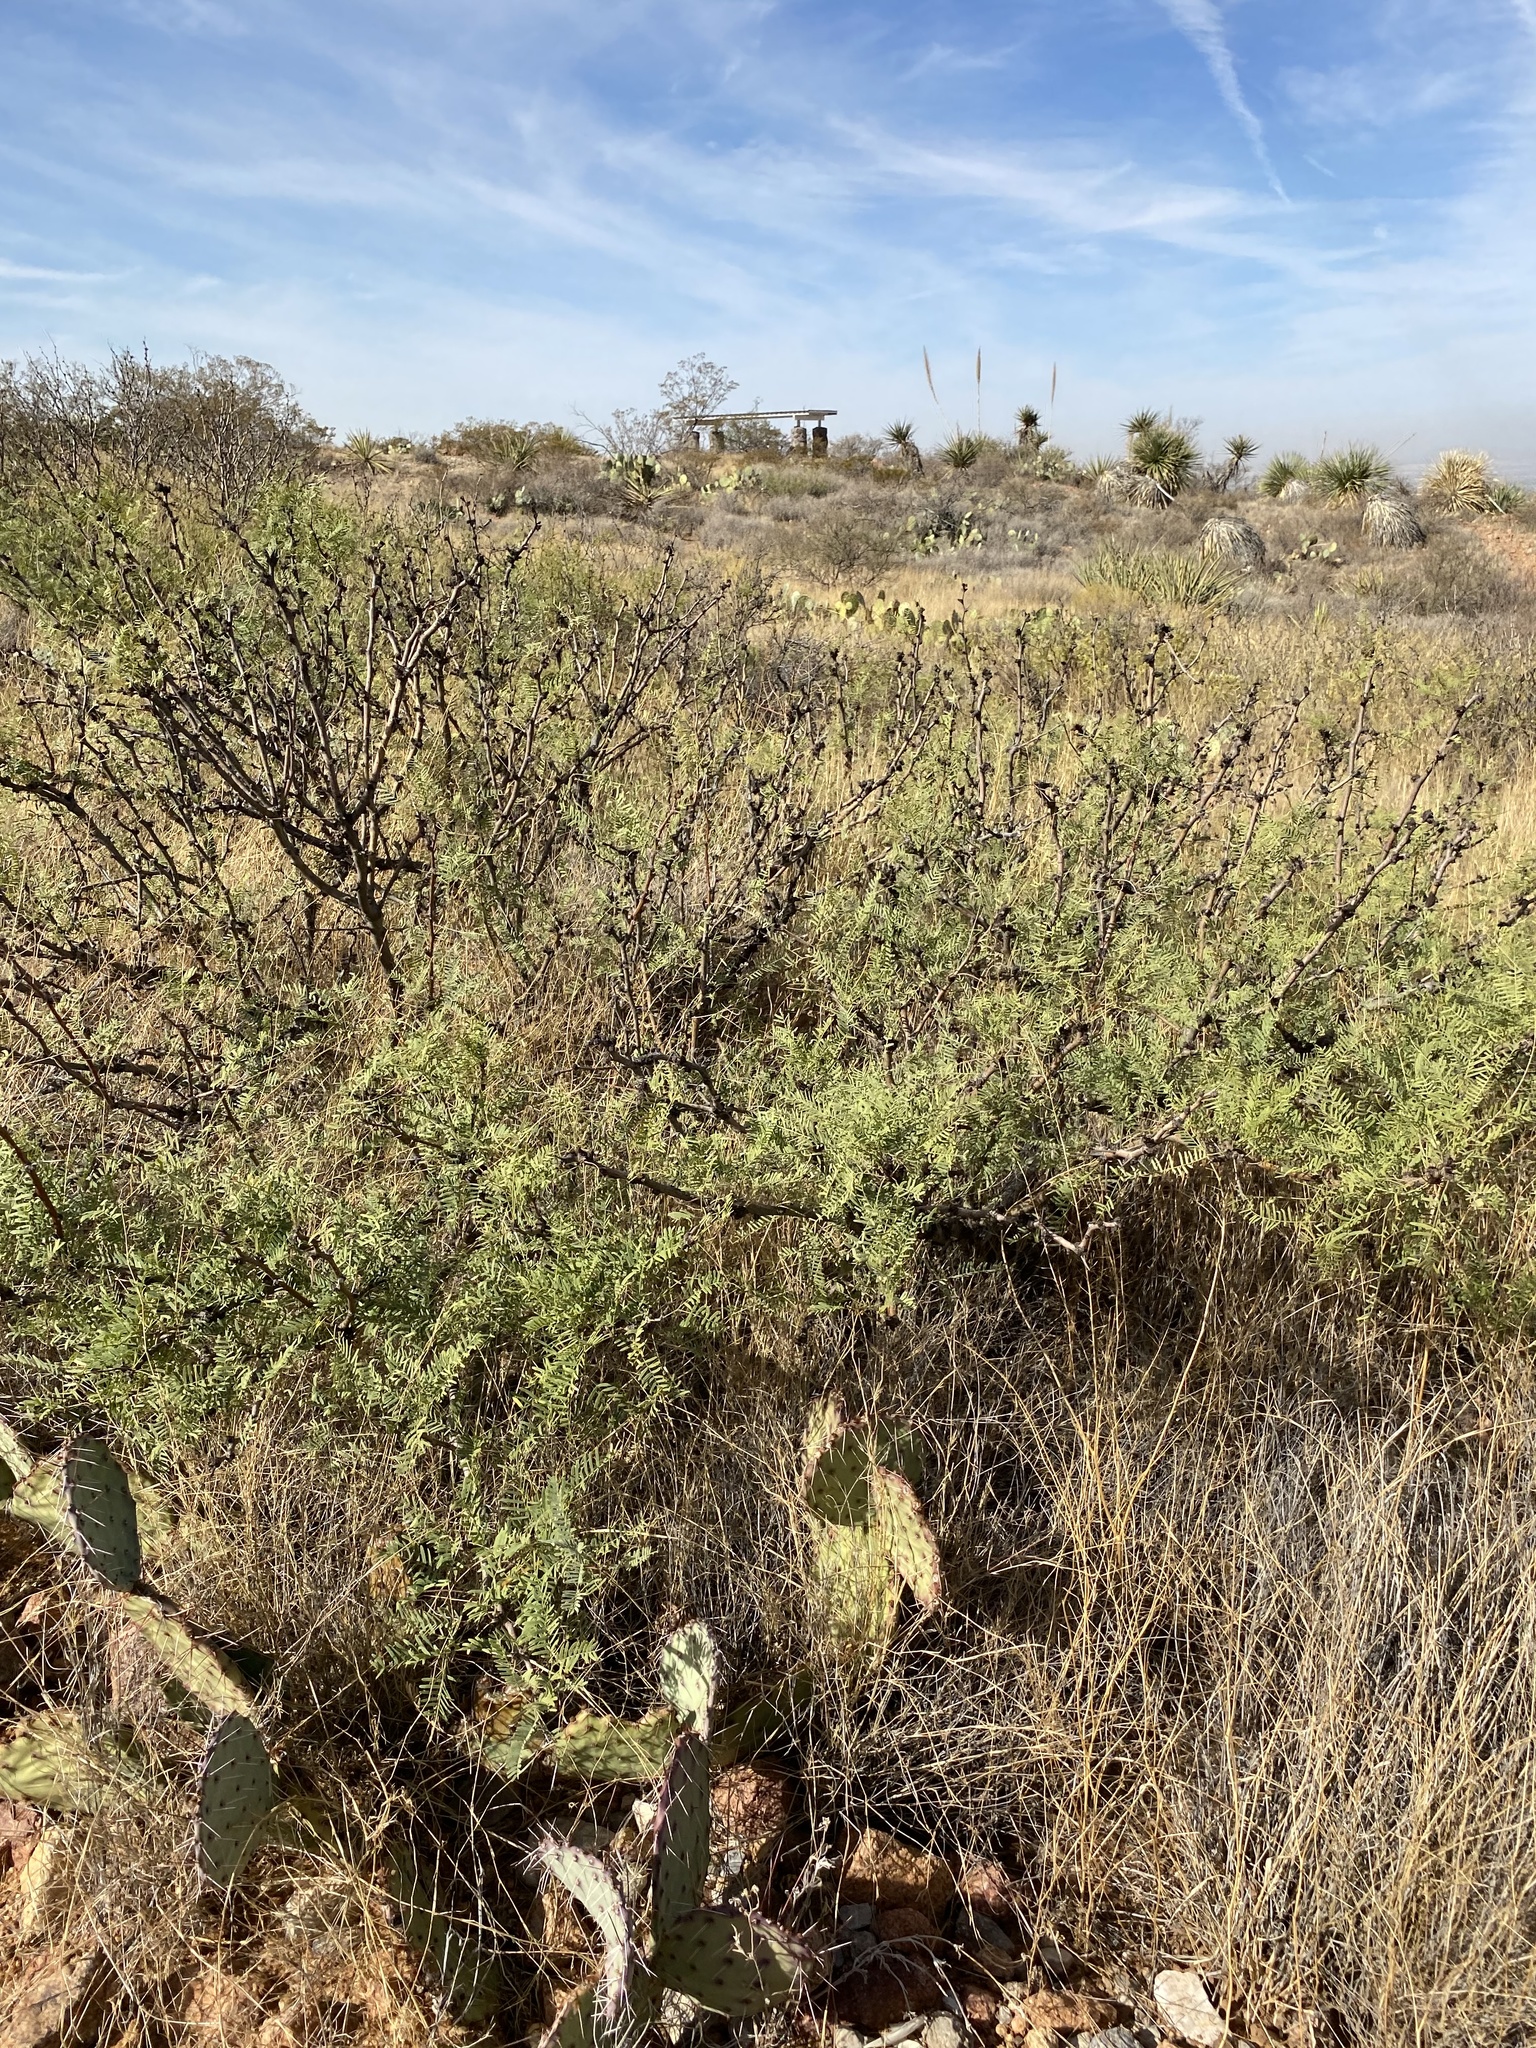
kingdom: Plantae
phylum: Tracheophyta
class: Magnoliopsida
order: Fabales
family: Fabaceae
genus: Prosopis
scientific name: Prosopis glandulosa
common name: Honey mesquite
